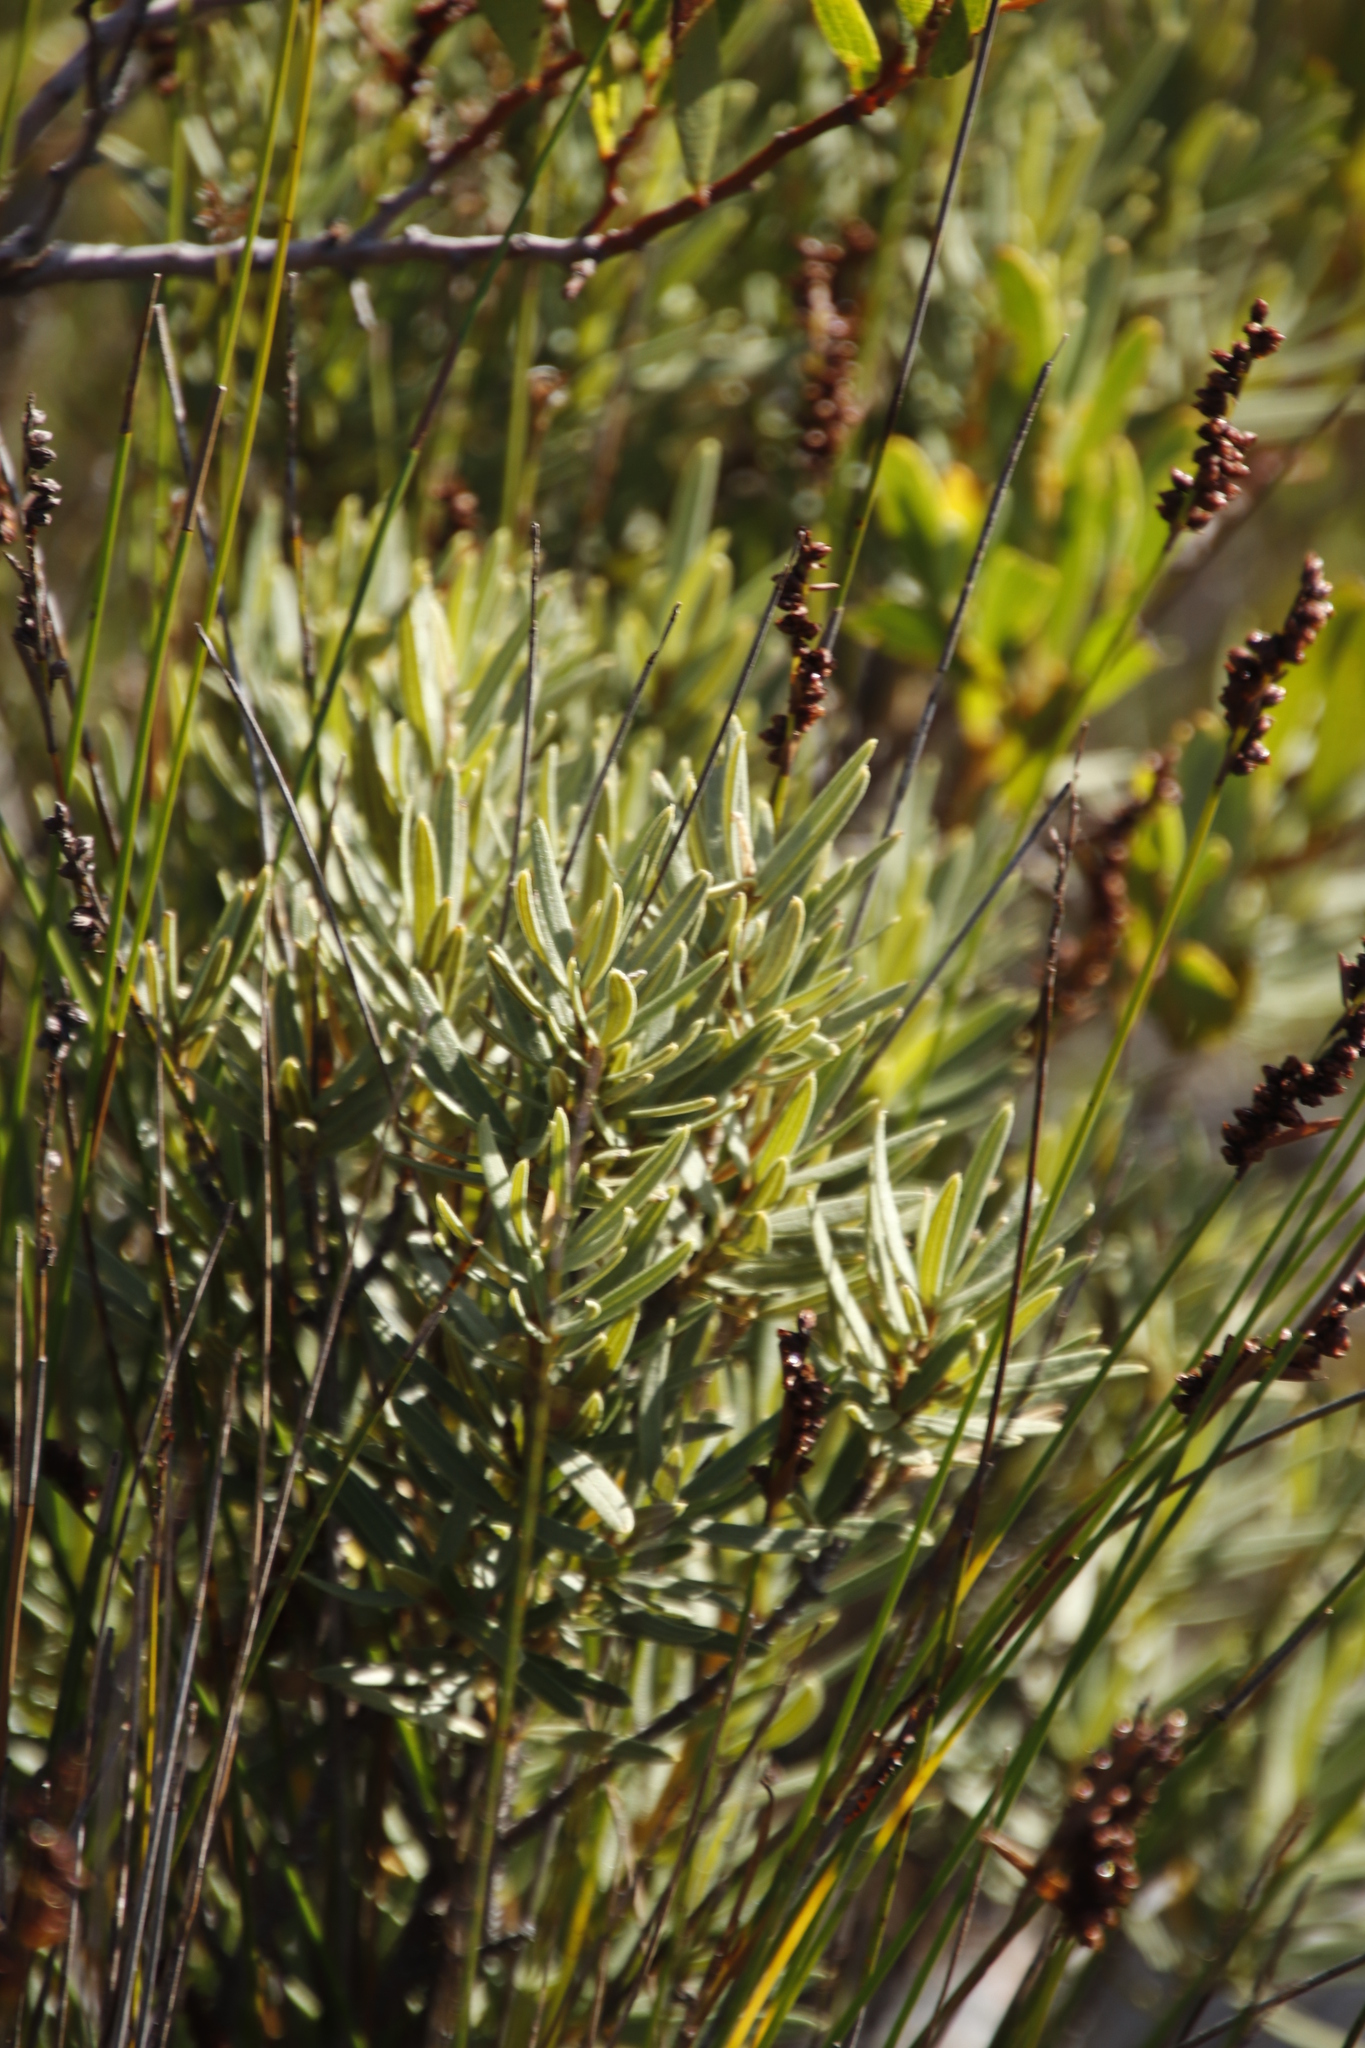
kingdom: Plantae
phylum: Tracheophyta
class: Magnoliopsida
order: Cornales
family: Grubbiaceae
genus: Grubbia
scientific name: Grubbia tomentosa
